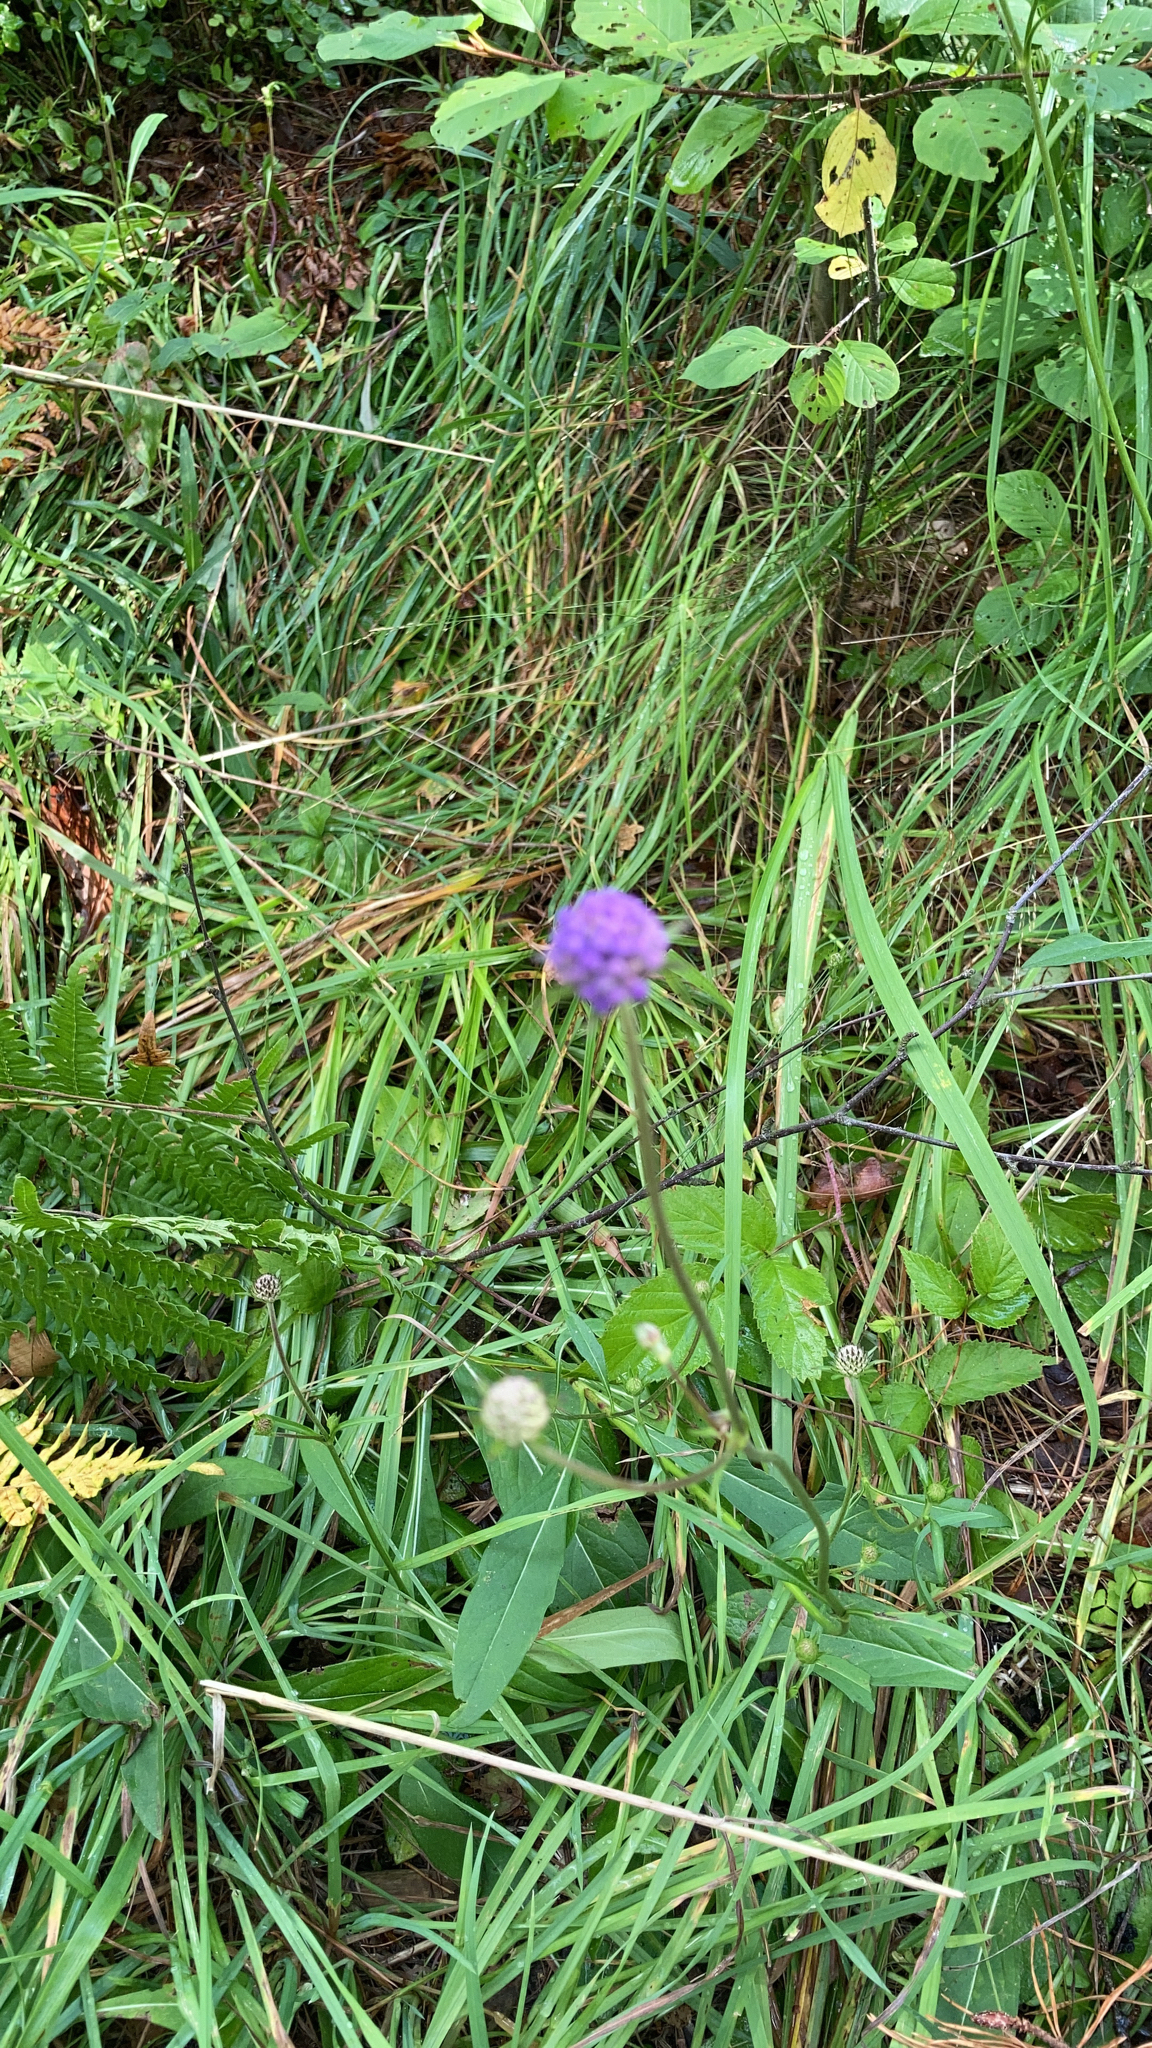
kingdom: Plantae
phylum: Tracheophyta
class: Magnoliopsida
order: Dipsacales
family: Caprifoliaceae
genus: Succisa
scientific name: Succisa pratensis
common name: Devil's-bit
